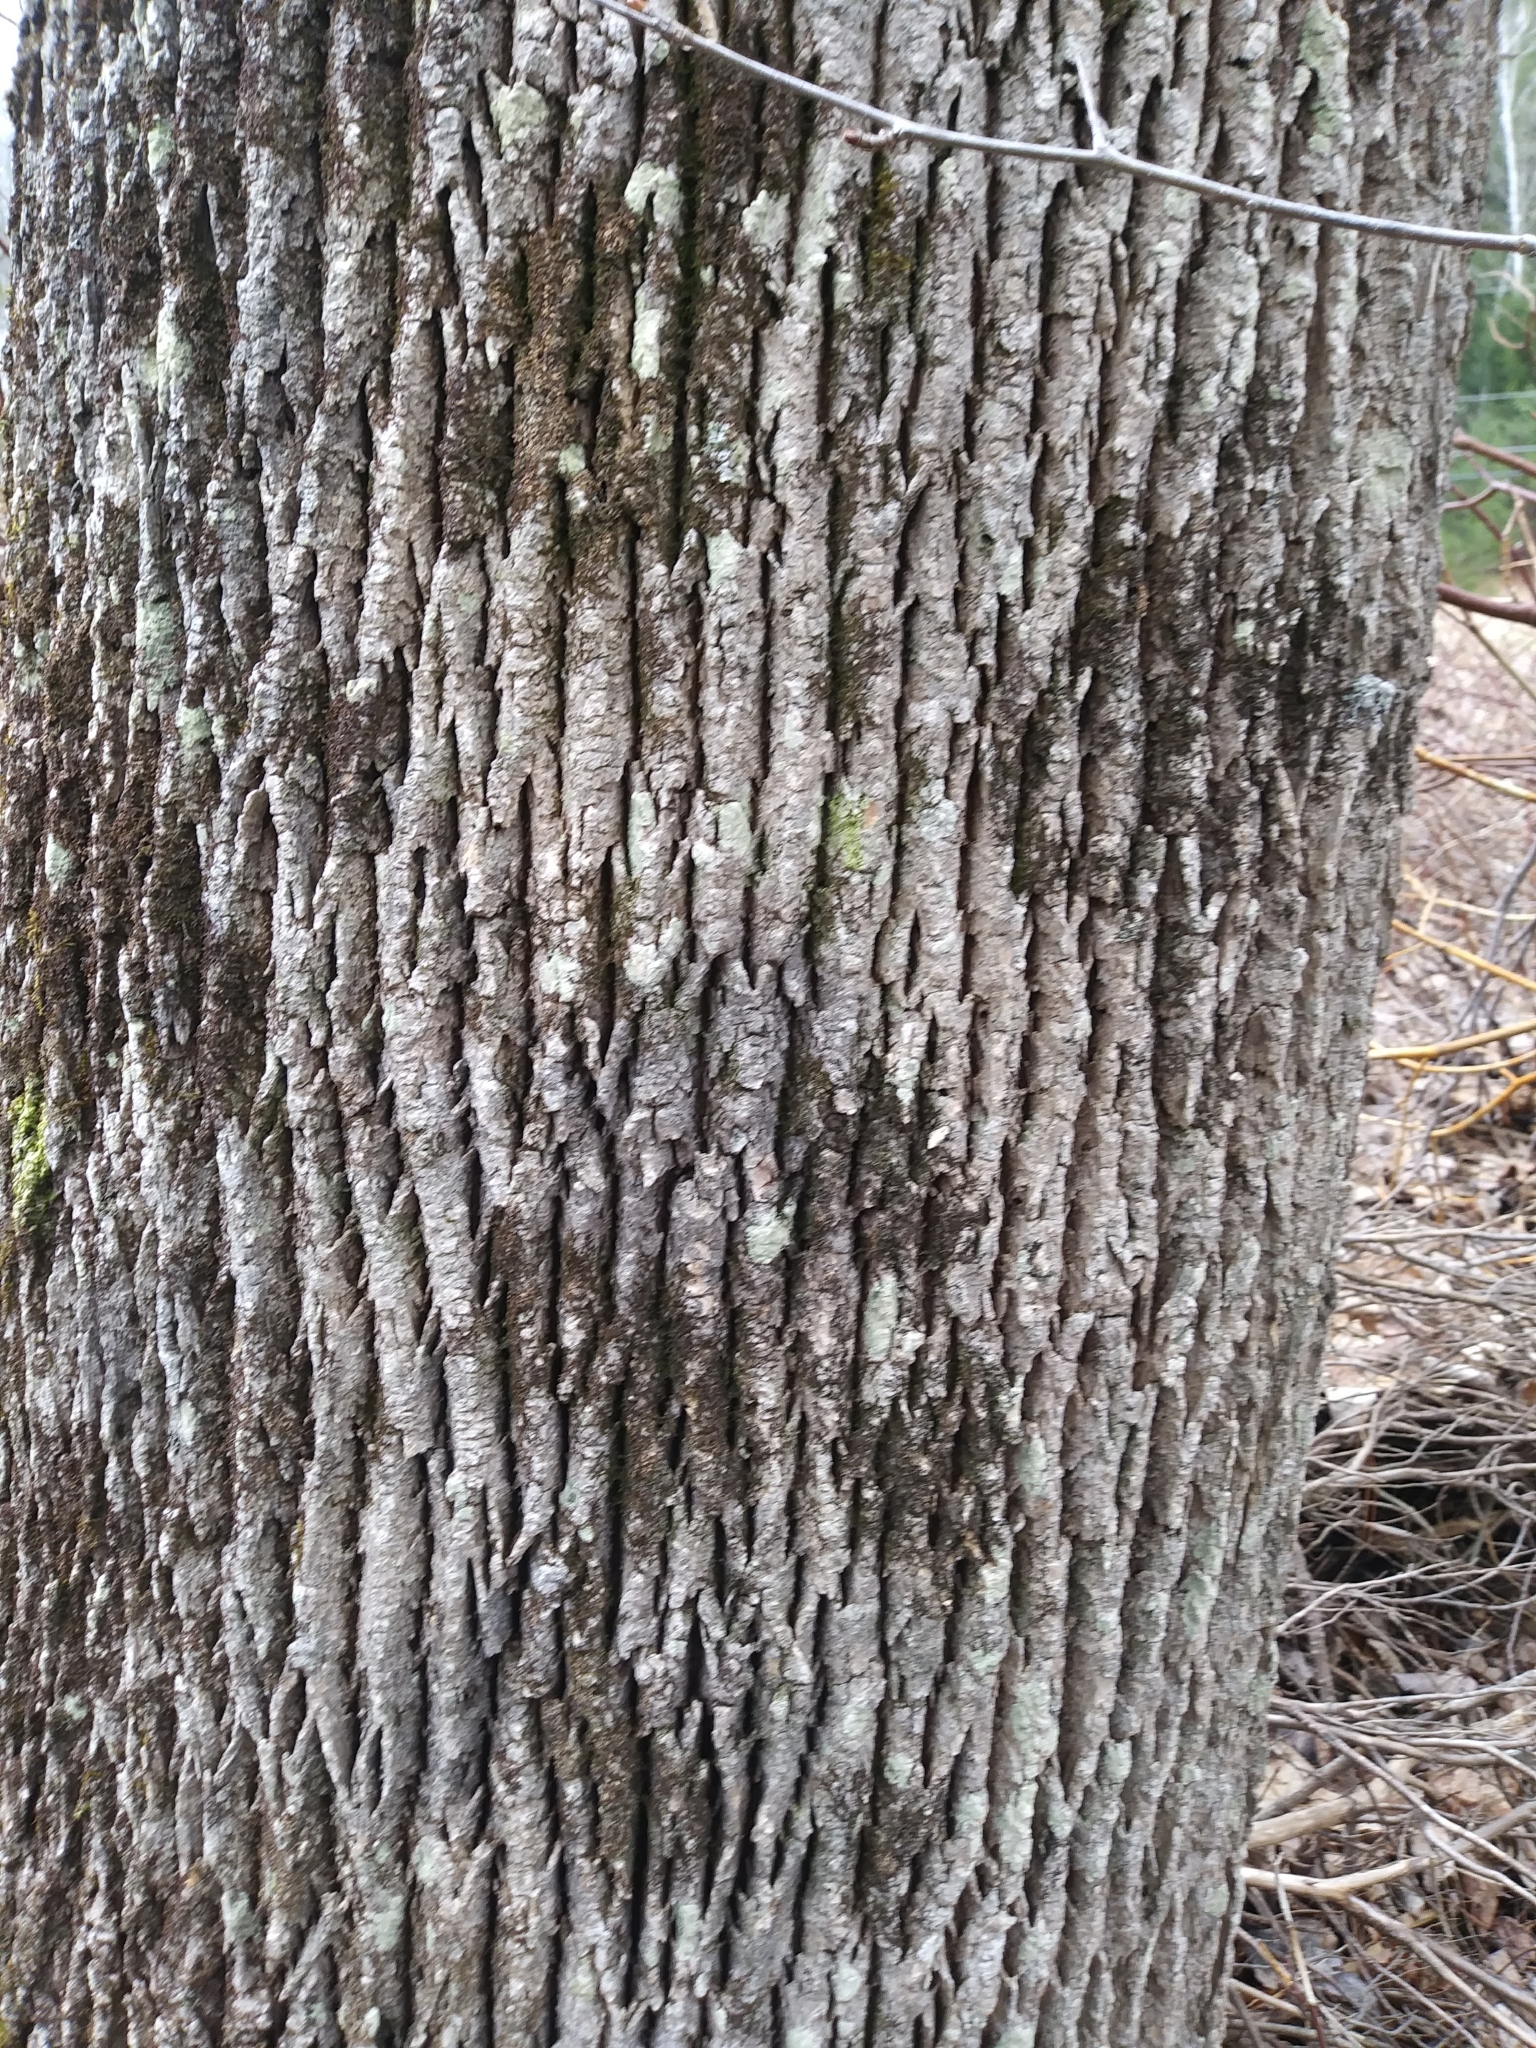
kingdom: Plantae
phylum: Tracheophyta
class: Magnoliopsida
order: Lamiales
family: Oleaceae
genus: Fraxinus
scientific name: Fraxinus americana
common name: White ash
